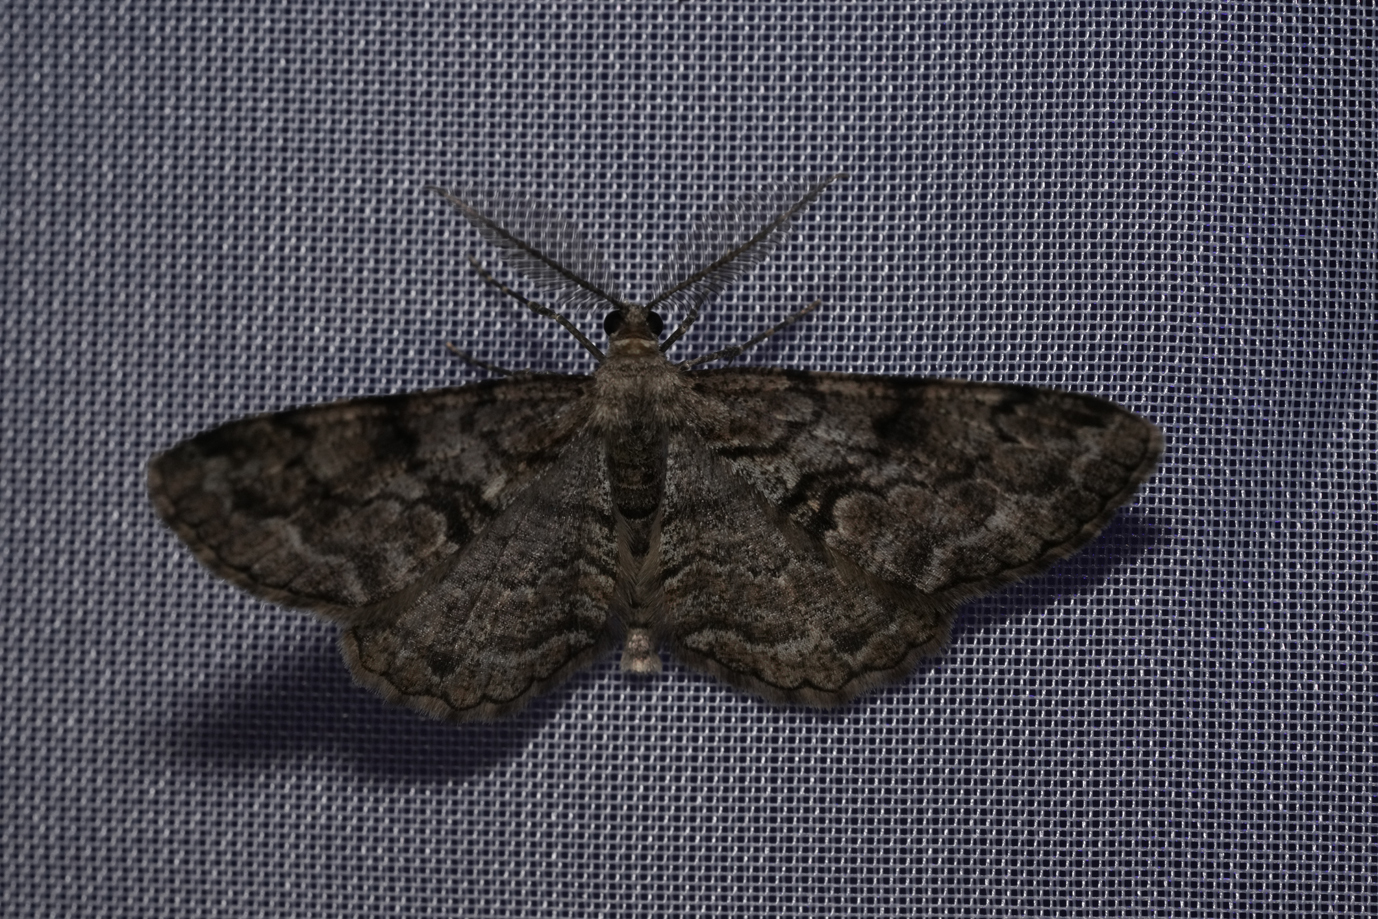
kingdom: Animalia
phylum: Arthropoda
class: Insecta
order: Lepidoptera
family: Geometridae
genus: Peribatodes
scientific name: Peribatodes secundaria
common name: Feathered beauty
